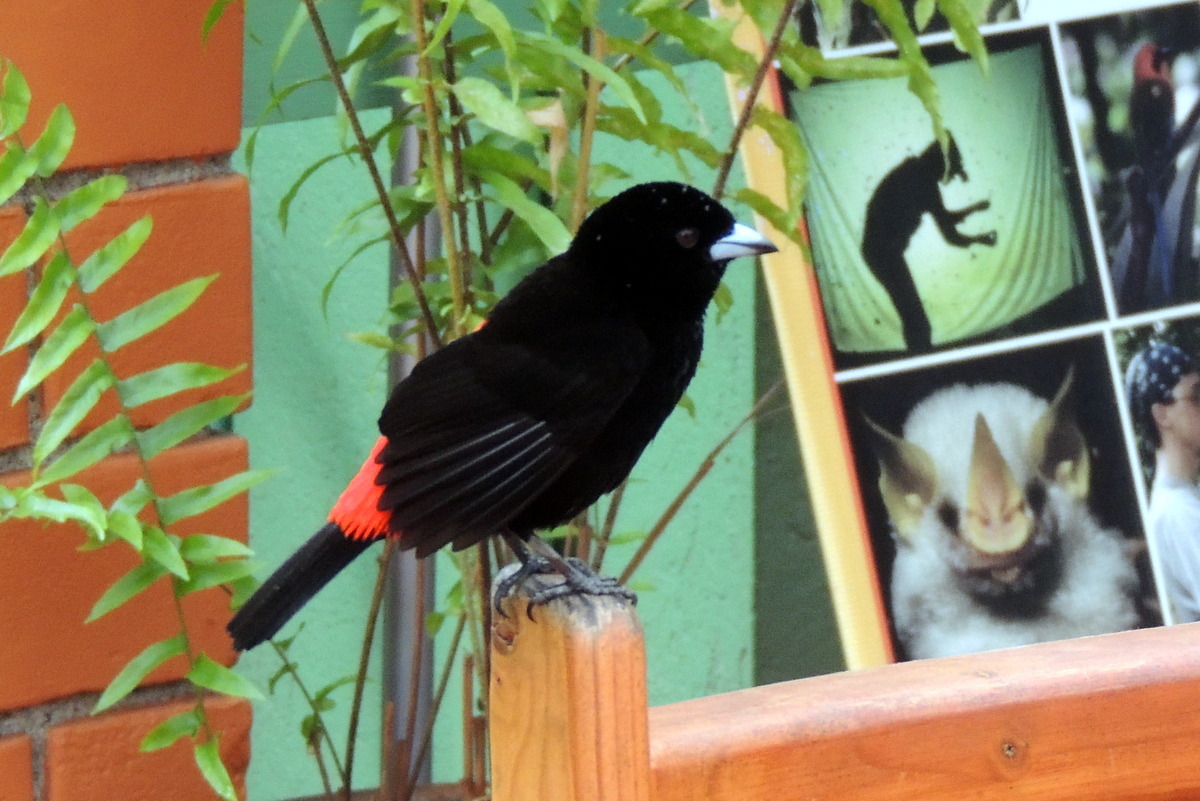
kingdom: Animalia
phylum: Chordata
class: Aves
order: Passeriformes
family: Thraupidae
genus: Ramphocelus
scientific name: Ramphocelus passerinii
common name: Passerini's tanager
